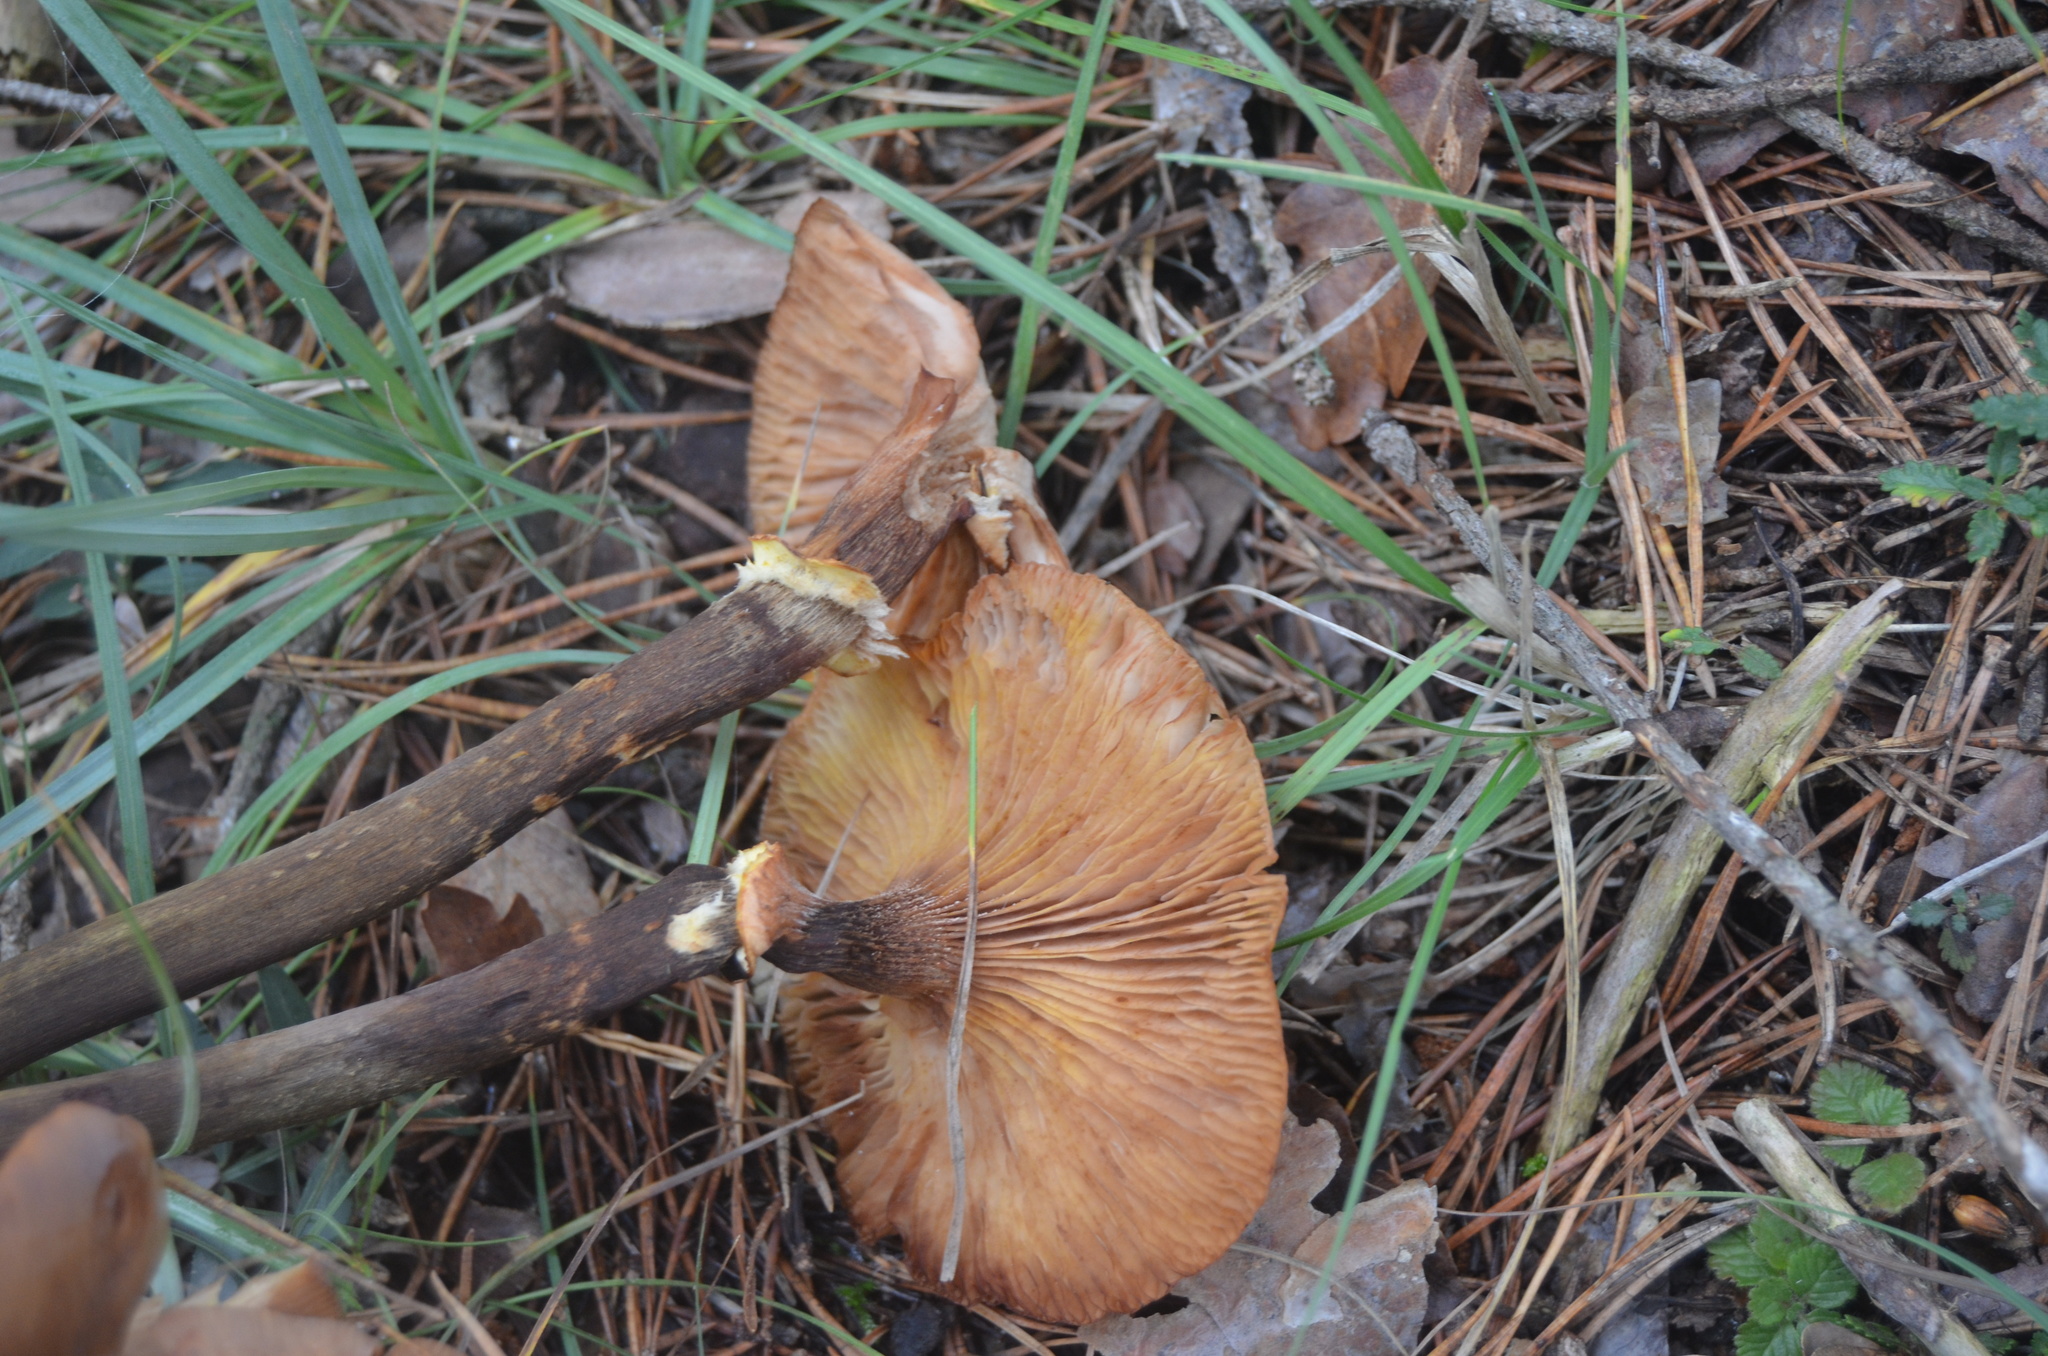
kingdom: Fungi
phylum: Basidiomycota
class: Agaricomycetes
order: Agaricales
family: Physalacriaceae
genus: Armillaria
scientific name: Armillaria mellea
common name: Honey fungus
